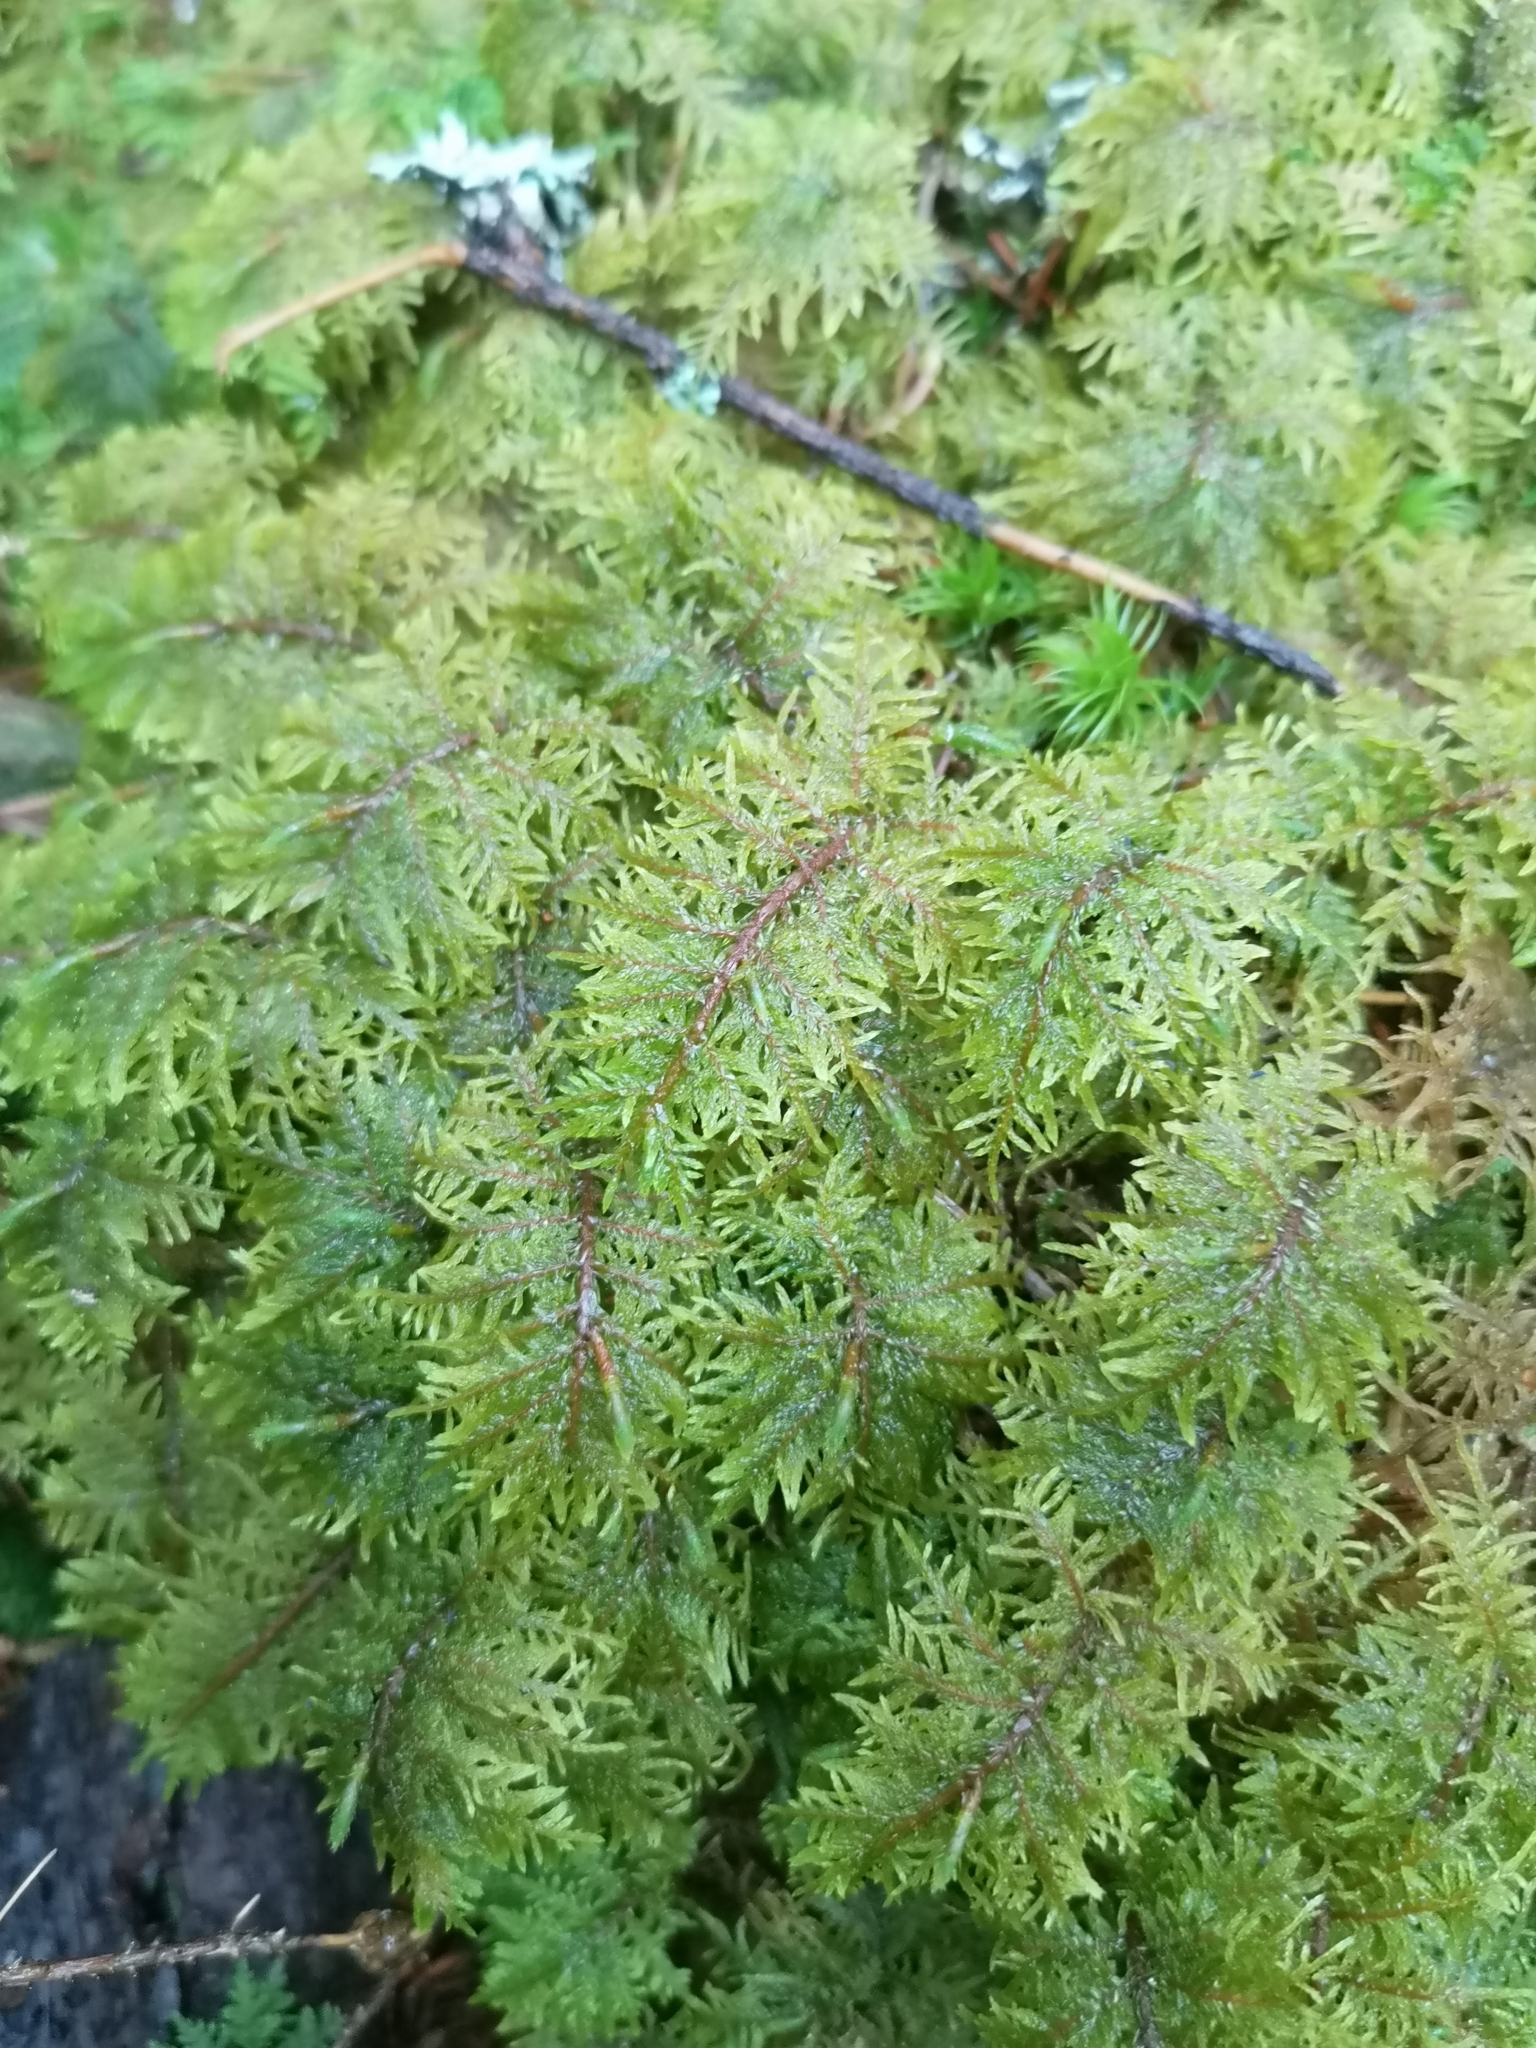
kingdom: Plantae
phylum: Bryophyta
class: Bryopsida
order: Hypnales
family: Hylocomiaceae
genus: Hylocomium
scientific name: Hylocomium splendens
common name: Stairstep moss
